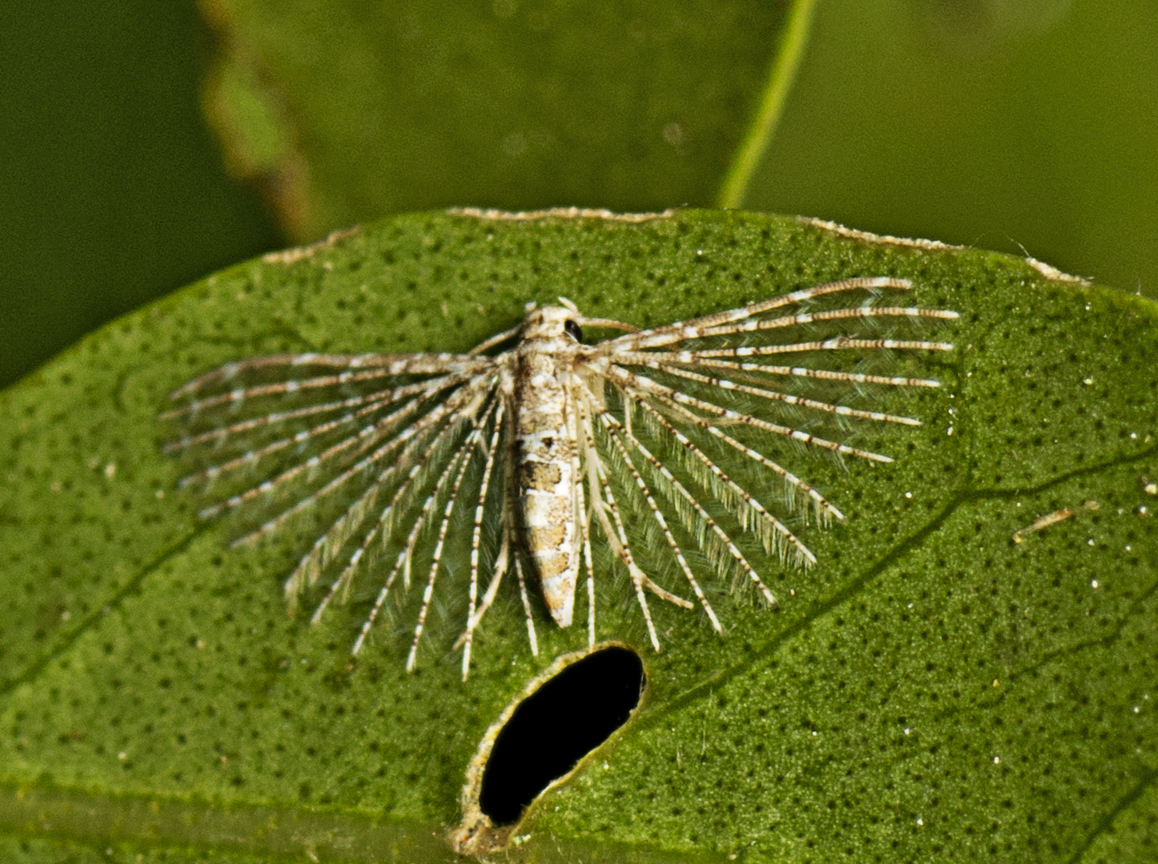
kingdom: Animalia
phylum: Arthropoda
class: Insecta
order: Lepidoptera
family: Alucitidae
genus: Alucita
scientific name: Alucita pygmaea
